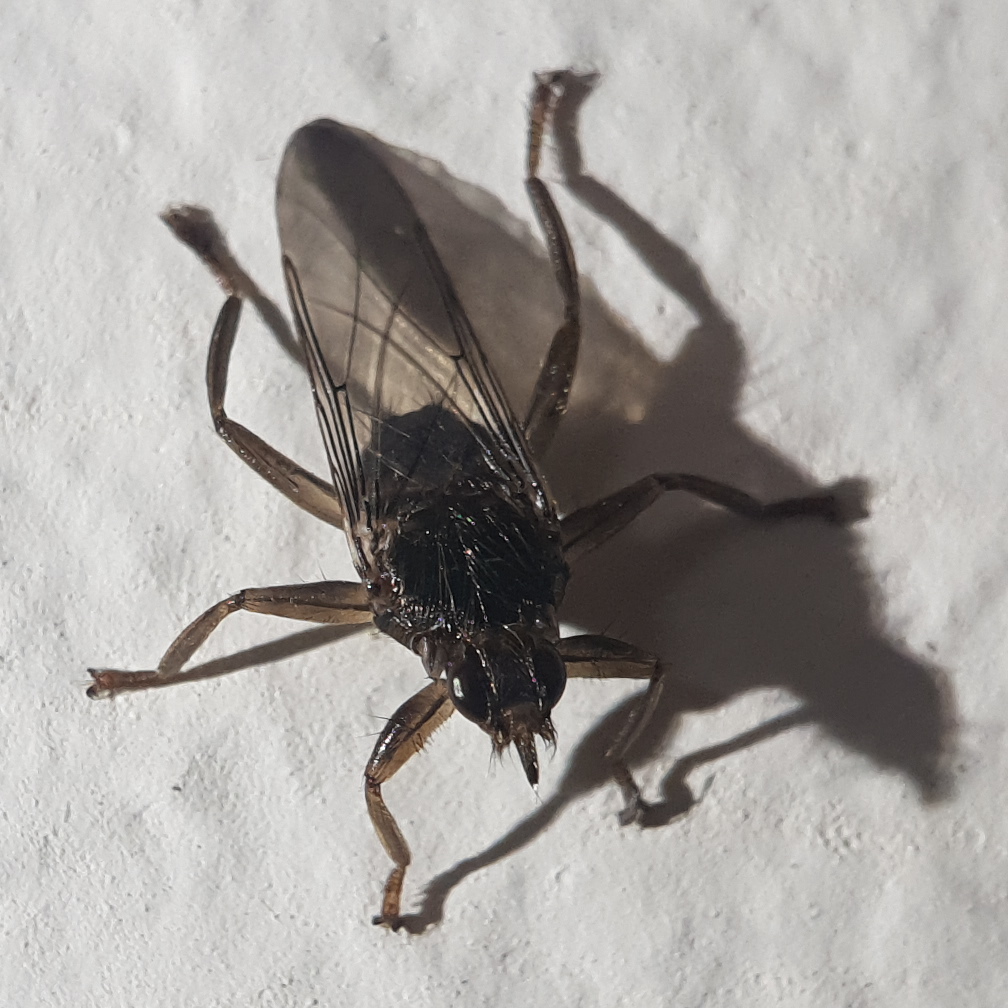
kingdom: Animalia
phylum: Arthropoda
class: Insecta
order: Diptera
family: Hippoboscidae
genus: Pseudolynchia
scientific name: Pseudolynchia canariensis
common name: Louse fly
